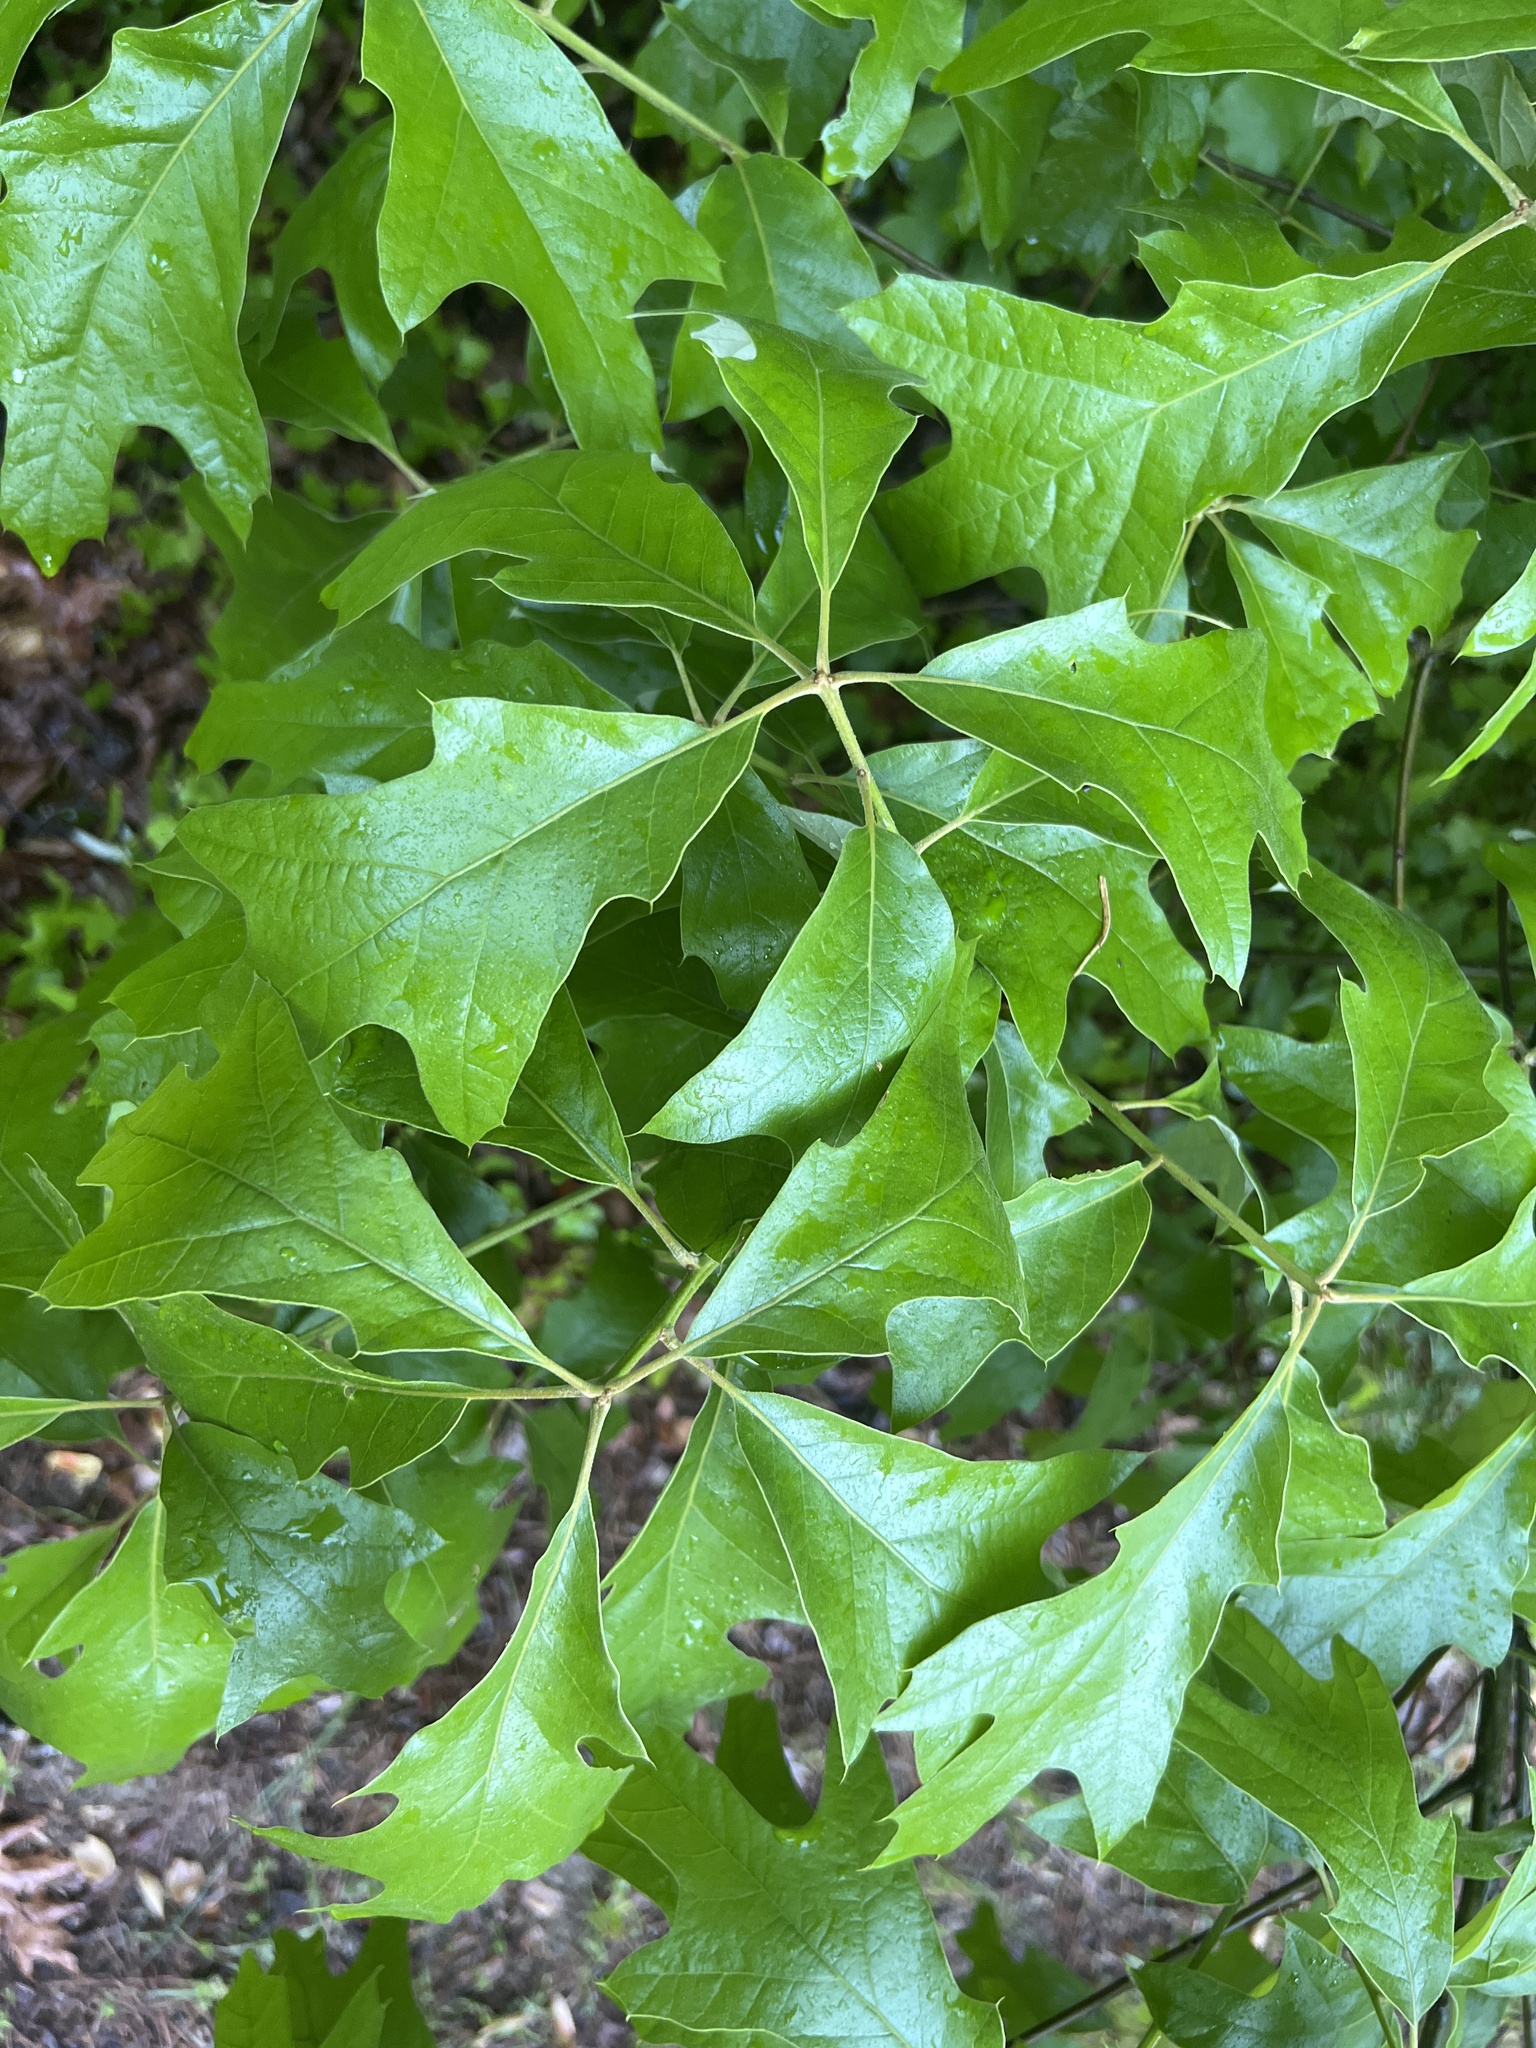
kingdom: Plantae
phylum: Tracheophyta
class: Magnoliopsida
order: Fagales
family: Fagaceae
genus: Quercus
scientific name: Quercus falcata
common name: Southern red oak
